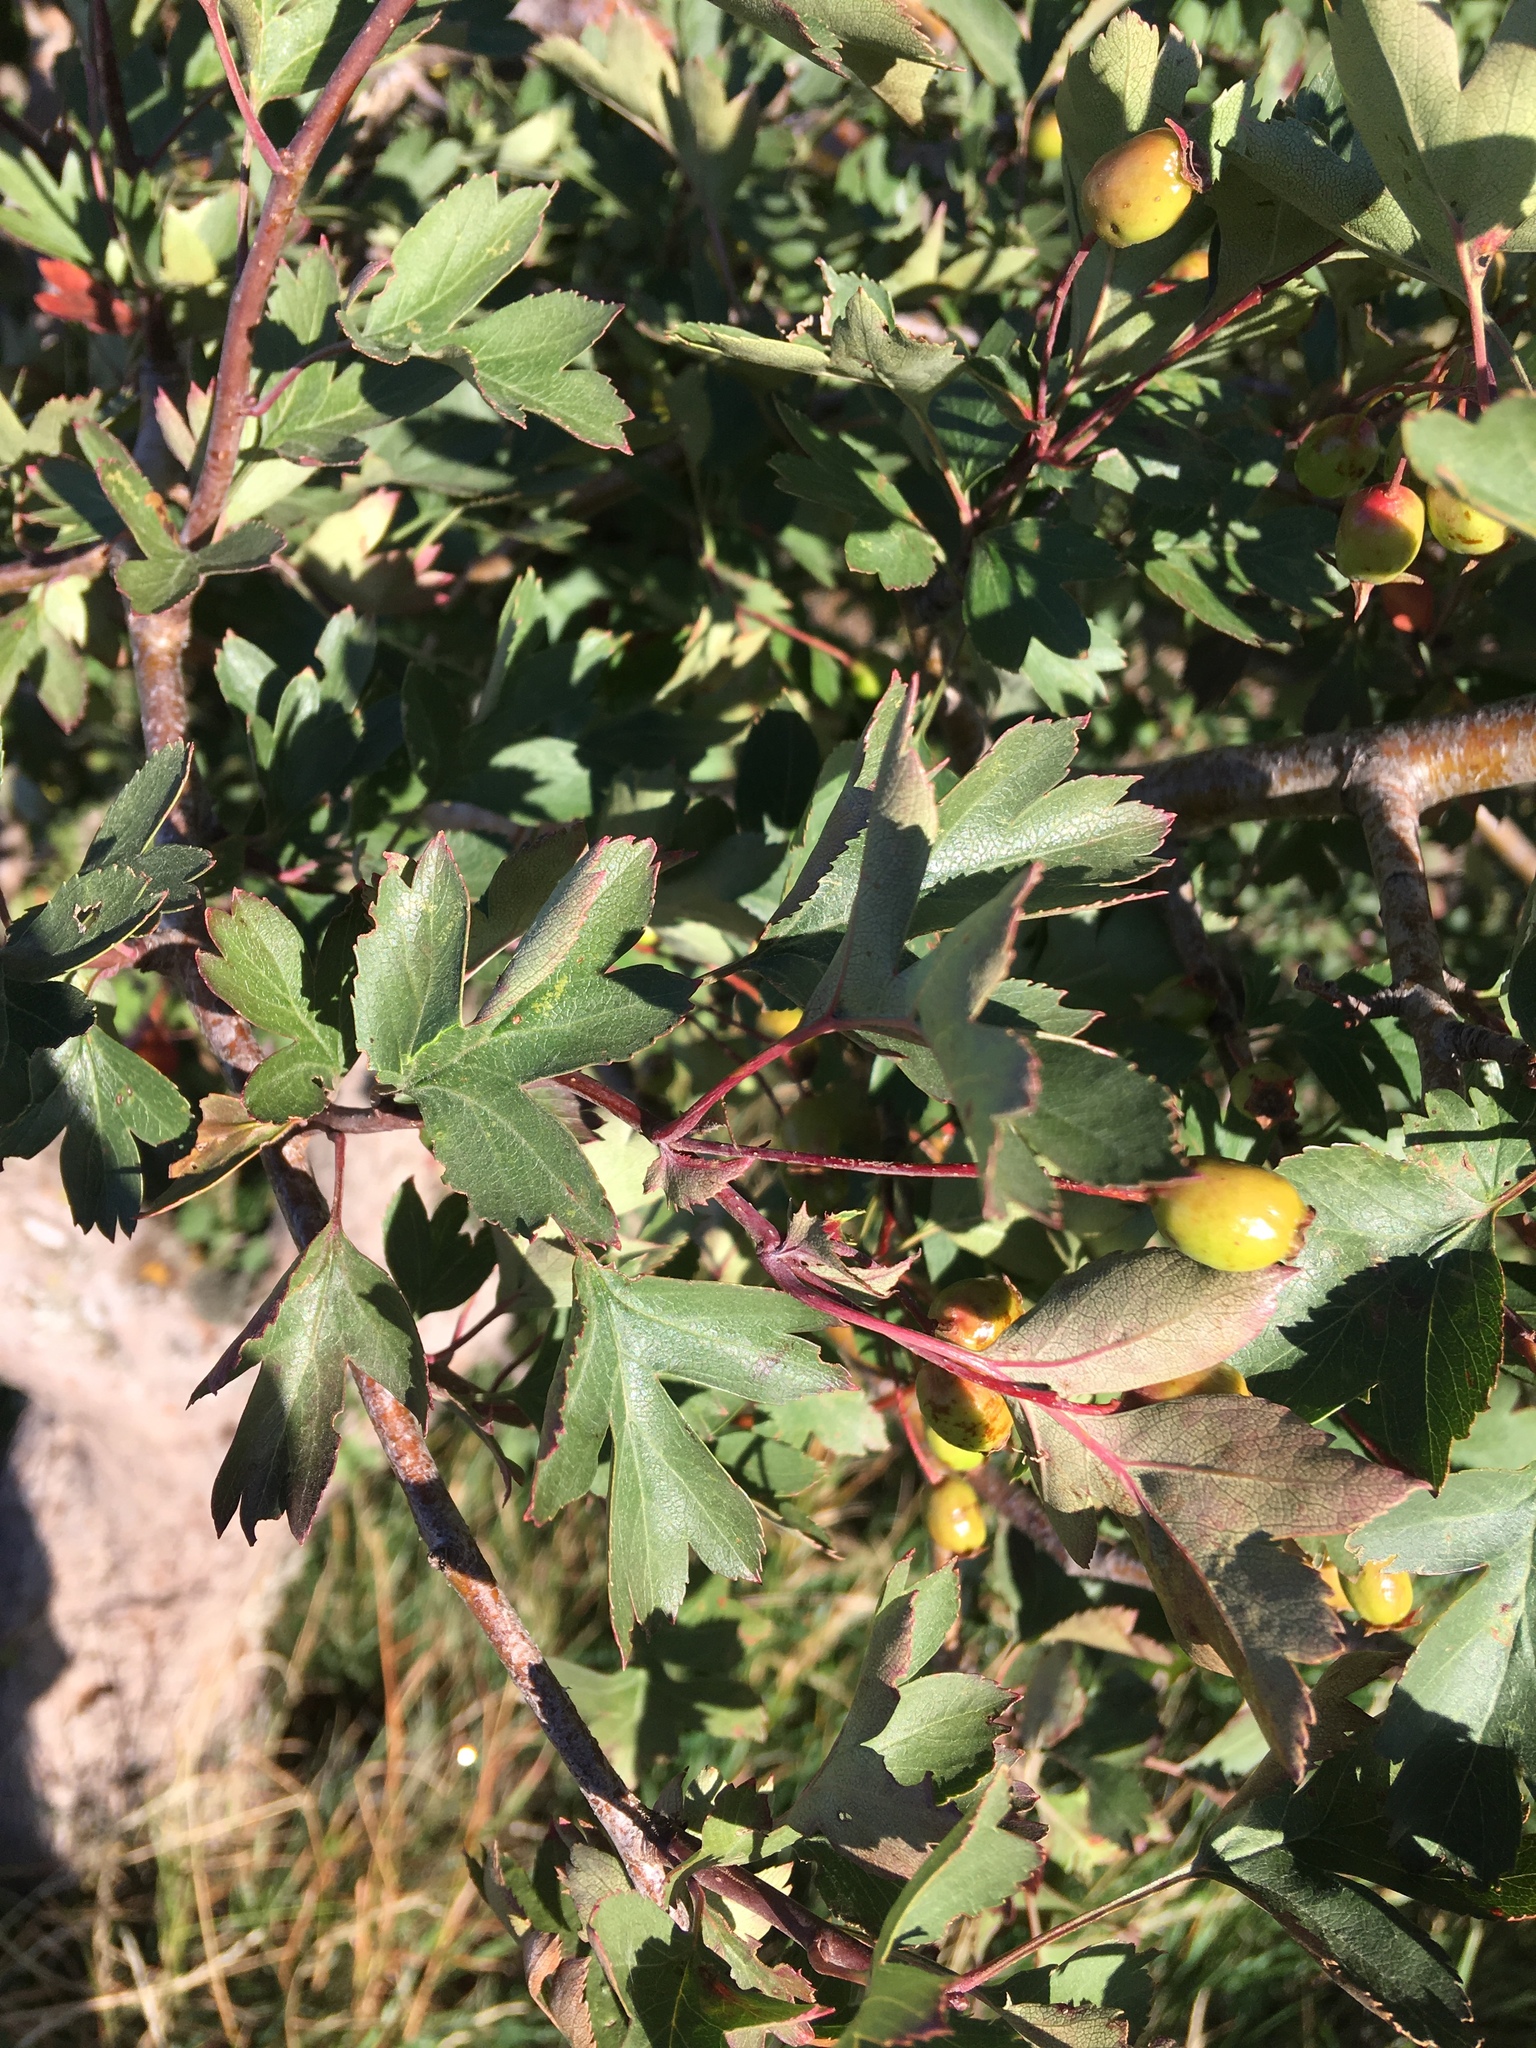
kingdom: Plantae
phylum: Tracheophyta
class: Magnoliopsida
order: Rosales
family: Rosaceae
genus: Crataegus
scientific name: Crataegus monogyna
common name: Hawthorn
